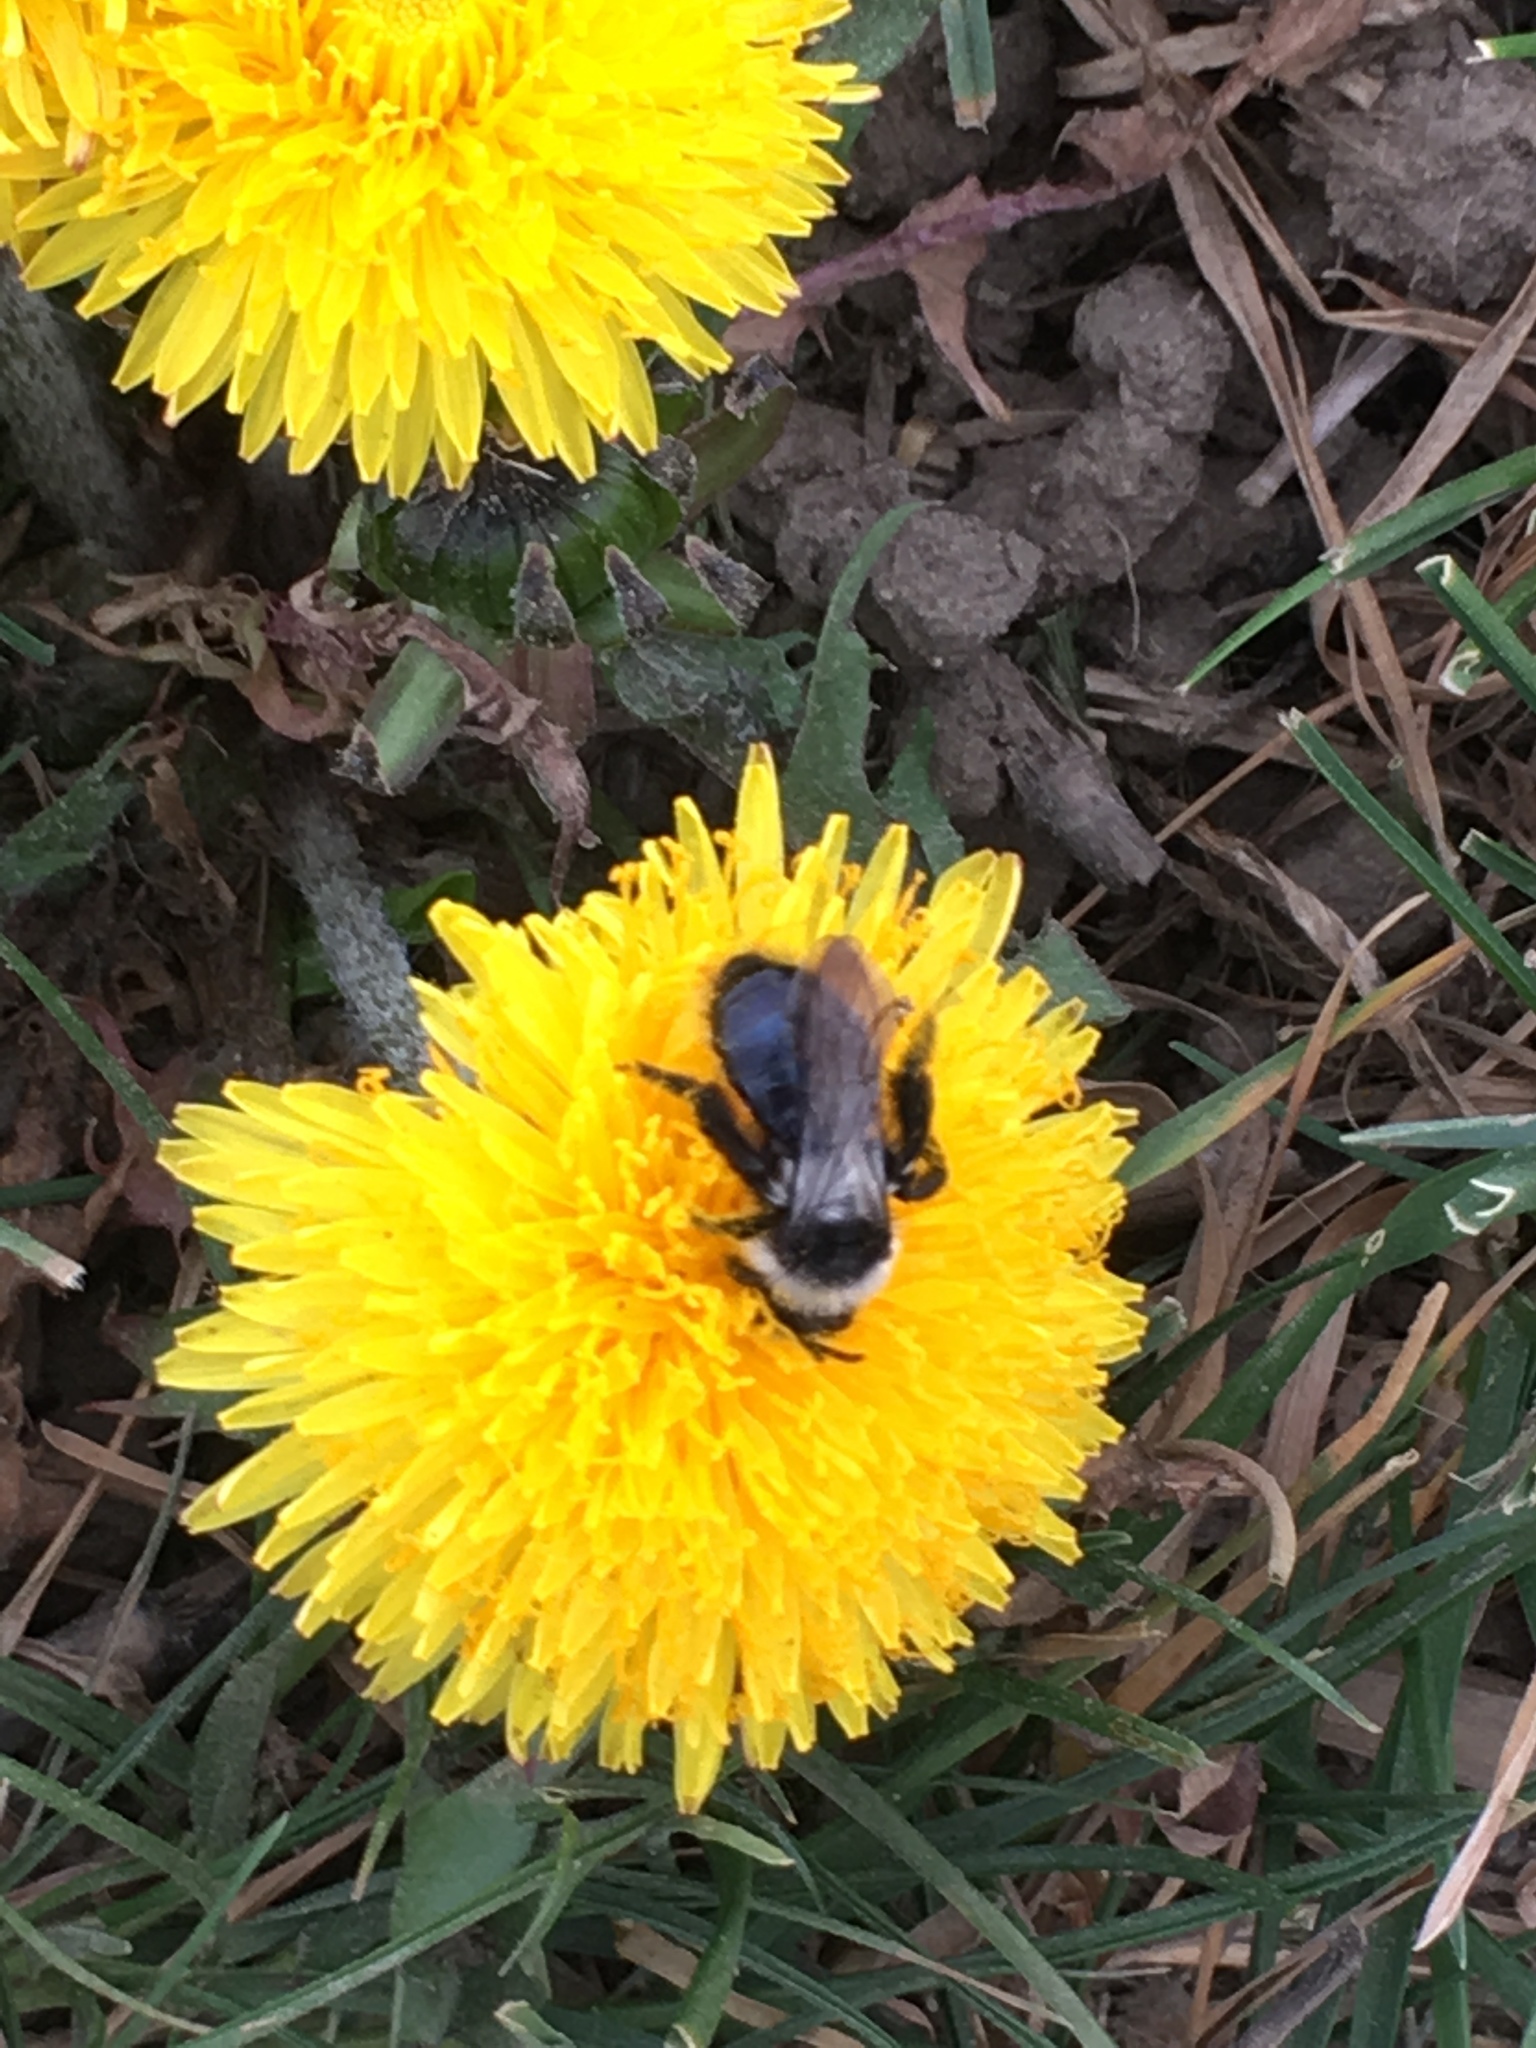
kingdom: Animalia
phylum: Arthropoda
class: Insecta
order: Hymenoptera
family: Andrenidae
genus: Andrena
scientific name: Andrena cineraria
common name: Ashy mining bee
